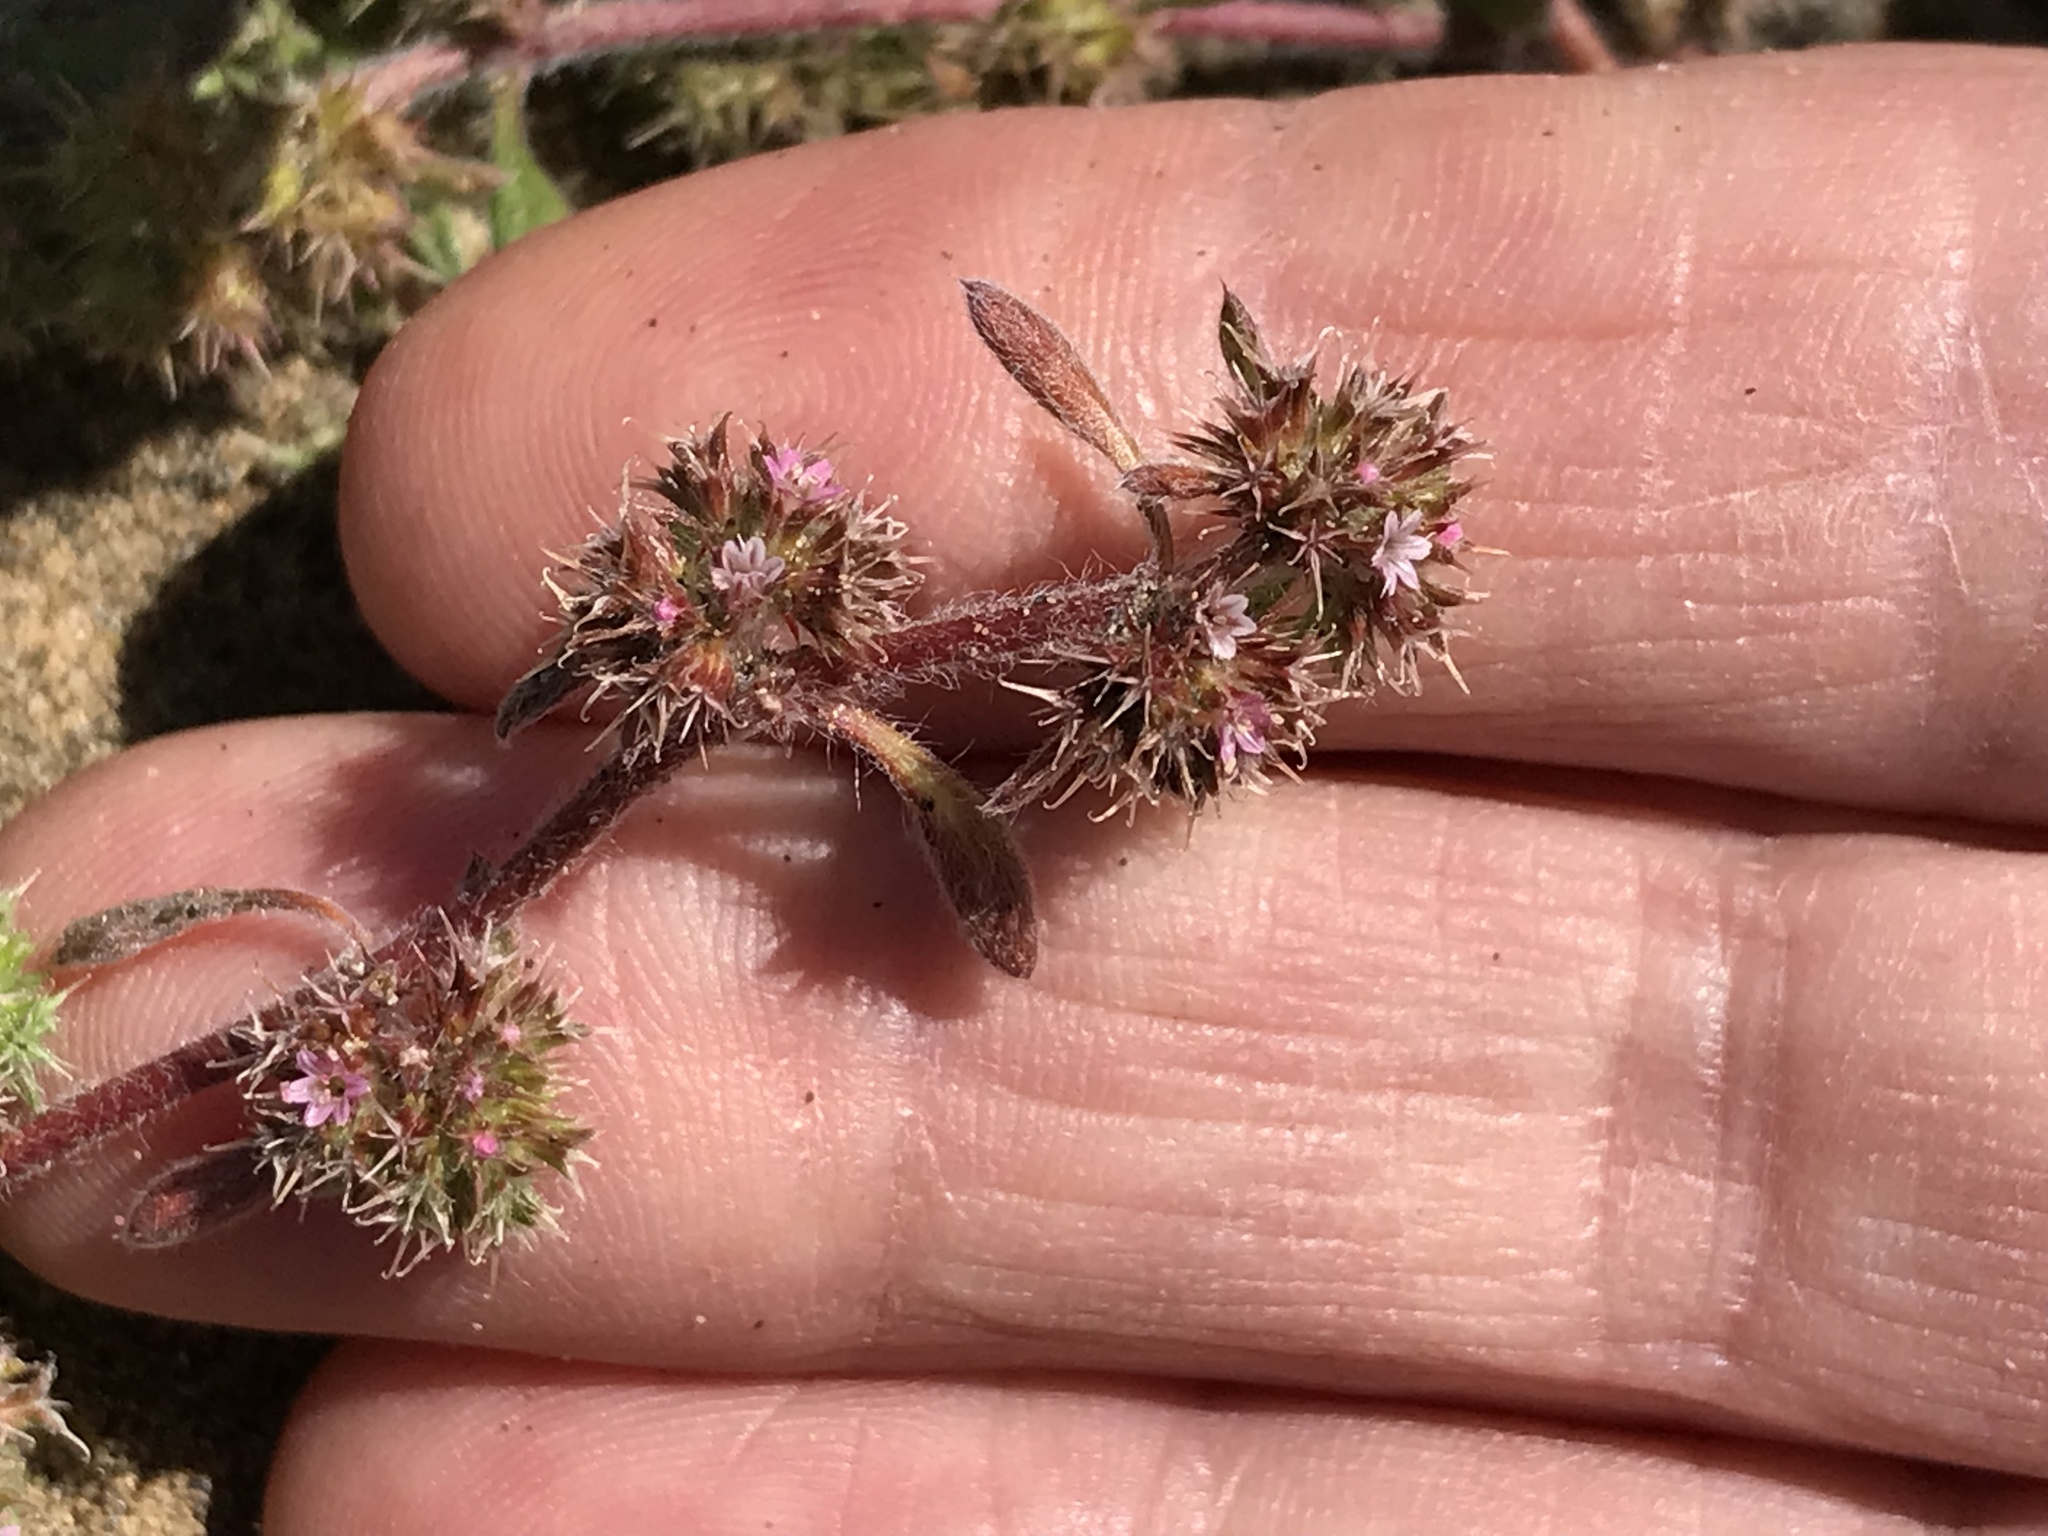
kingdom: Plantae
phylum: Tracheophyta
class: Magnoliopsida
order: Caryophyllales
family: Polygonaceae
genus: Chorizanthe
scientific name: Chorizanthe cuspidata
